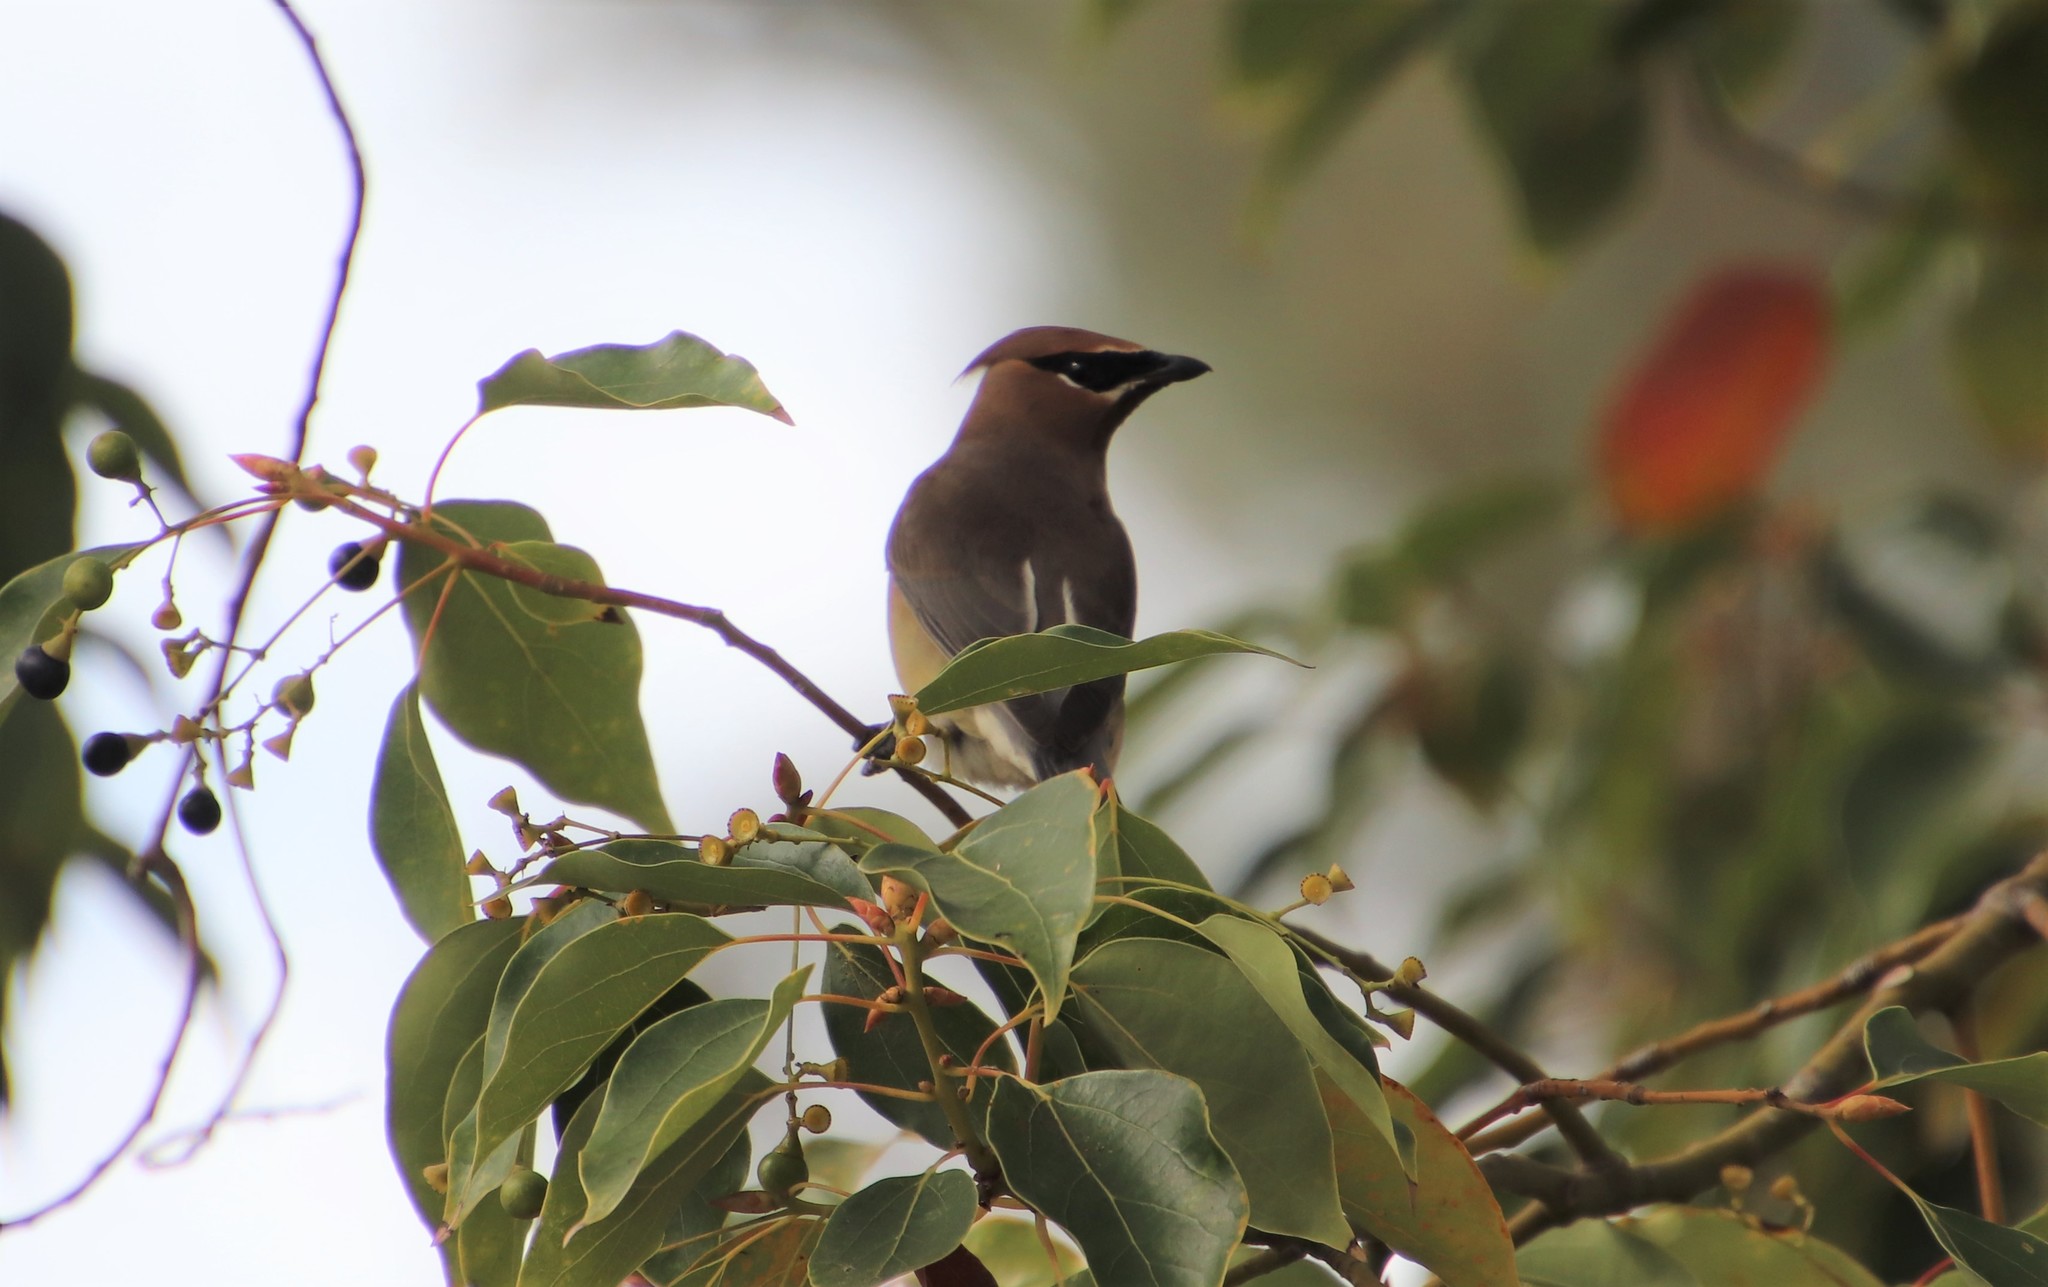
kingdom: Animalia
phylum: Chordata
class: Aves
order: Passeriformes
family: Bombycillidae
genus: Bombycilla
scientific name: Bombycilla cedrorum
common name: Cedar waxwing
